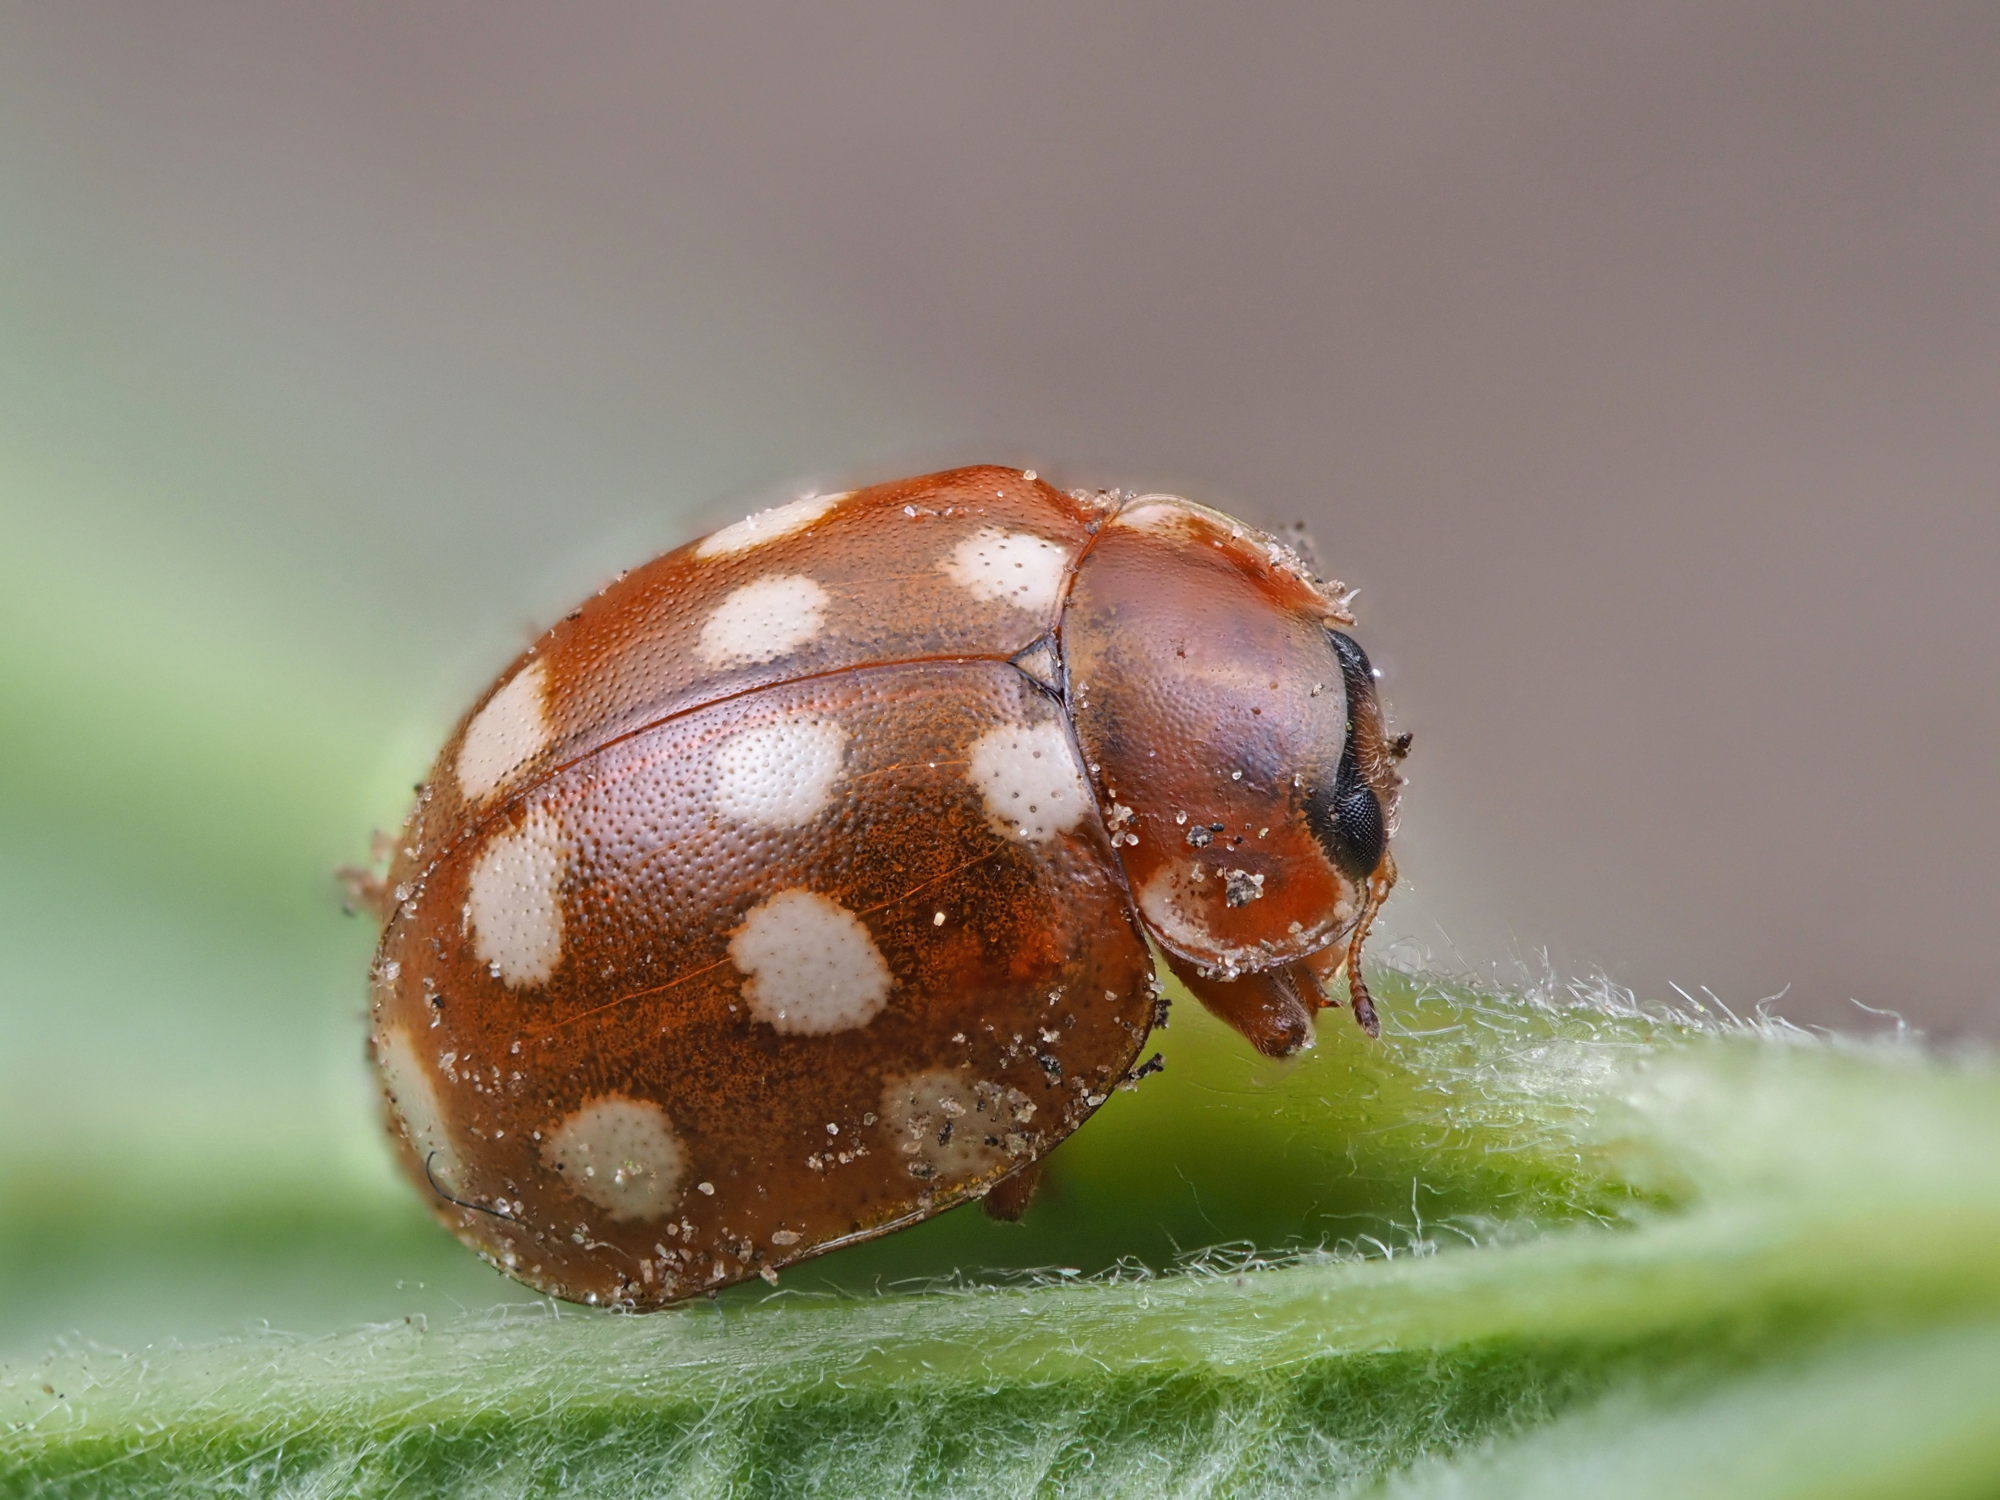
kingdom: Animalia
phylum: Arthropoda
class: Insecta
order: Coleoptera
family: Coccinellidae
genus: Calvia
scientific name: Calvia quatuordecimguttata
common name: Cream-spot ladybird
